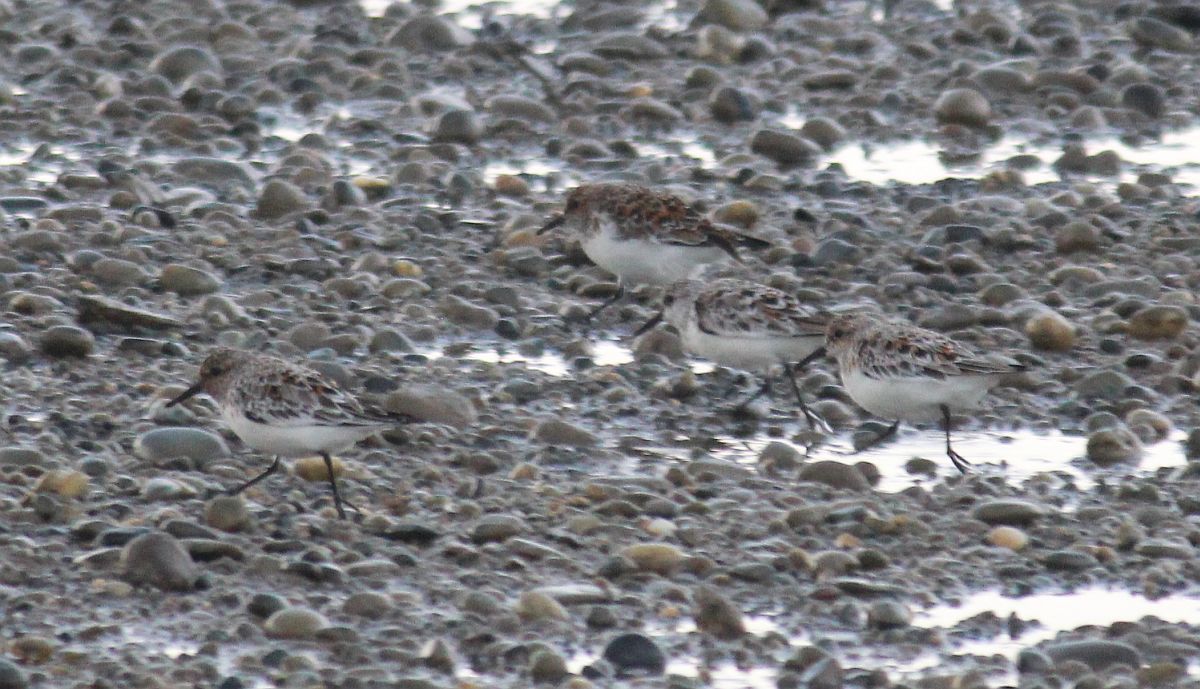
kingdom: Animalia
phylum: Chordata
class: Aves
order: Charadriiformes
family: Scolopacidae
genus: Calidris
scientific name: Calidris alba
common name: Sanderling
